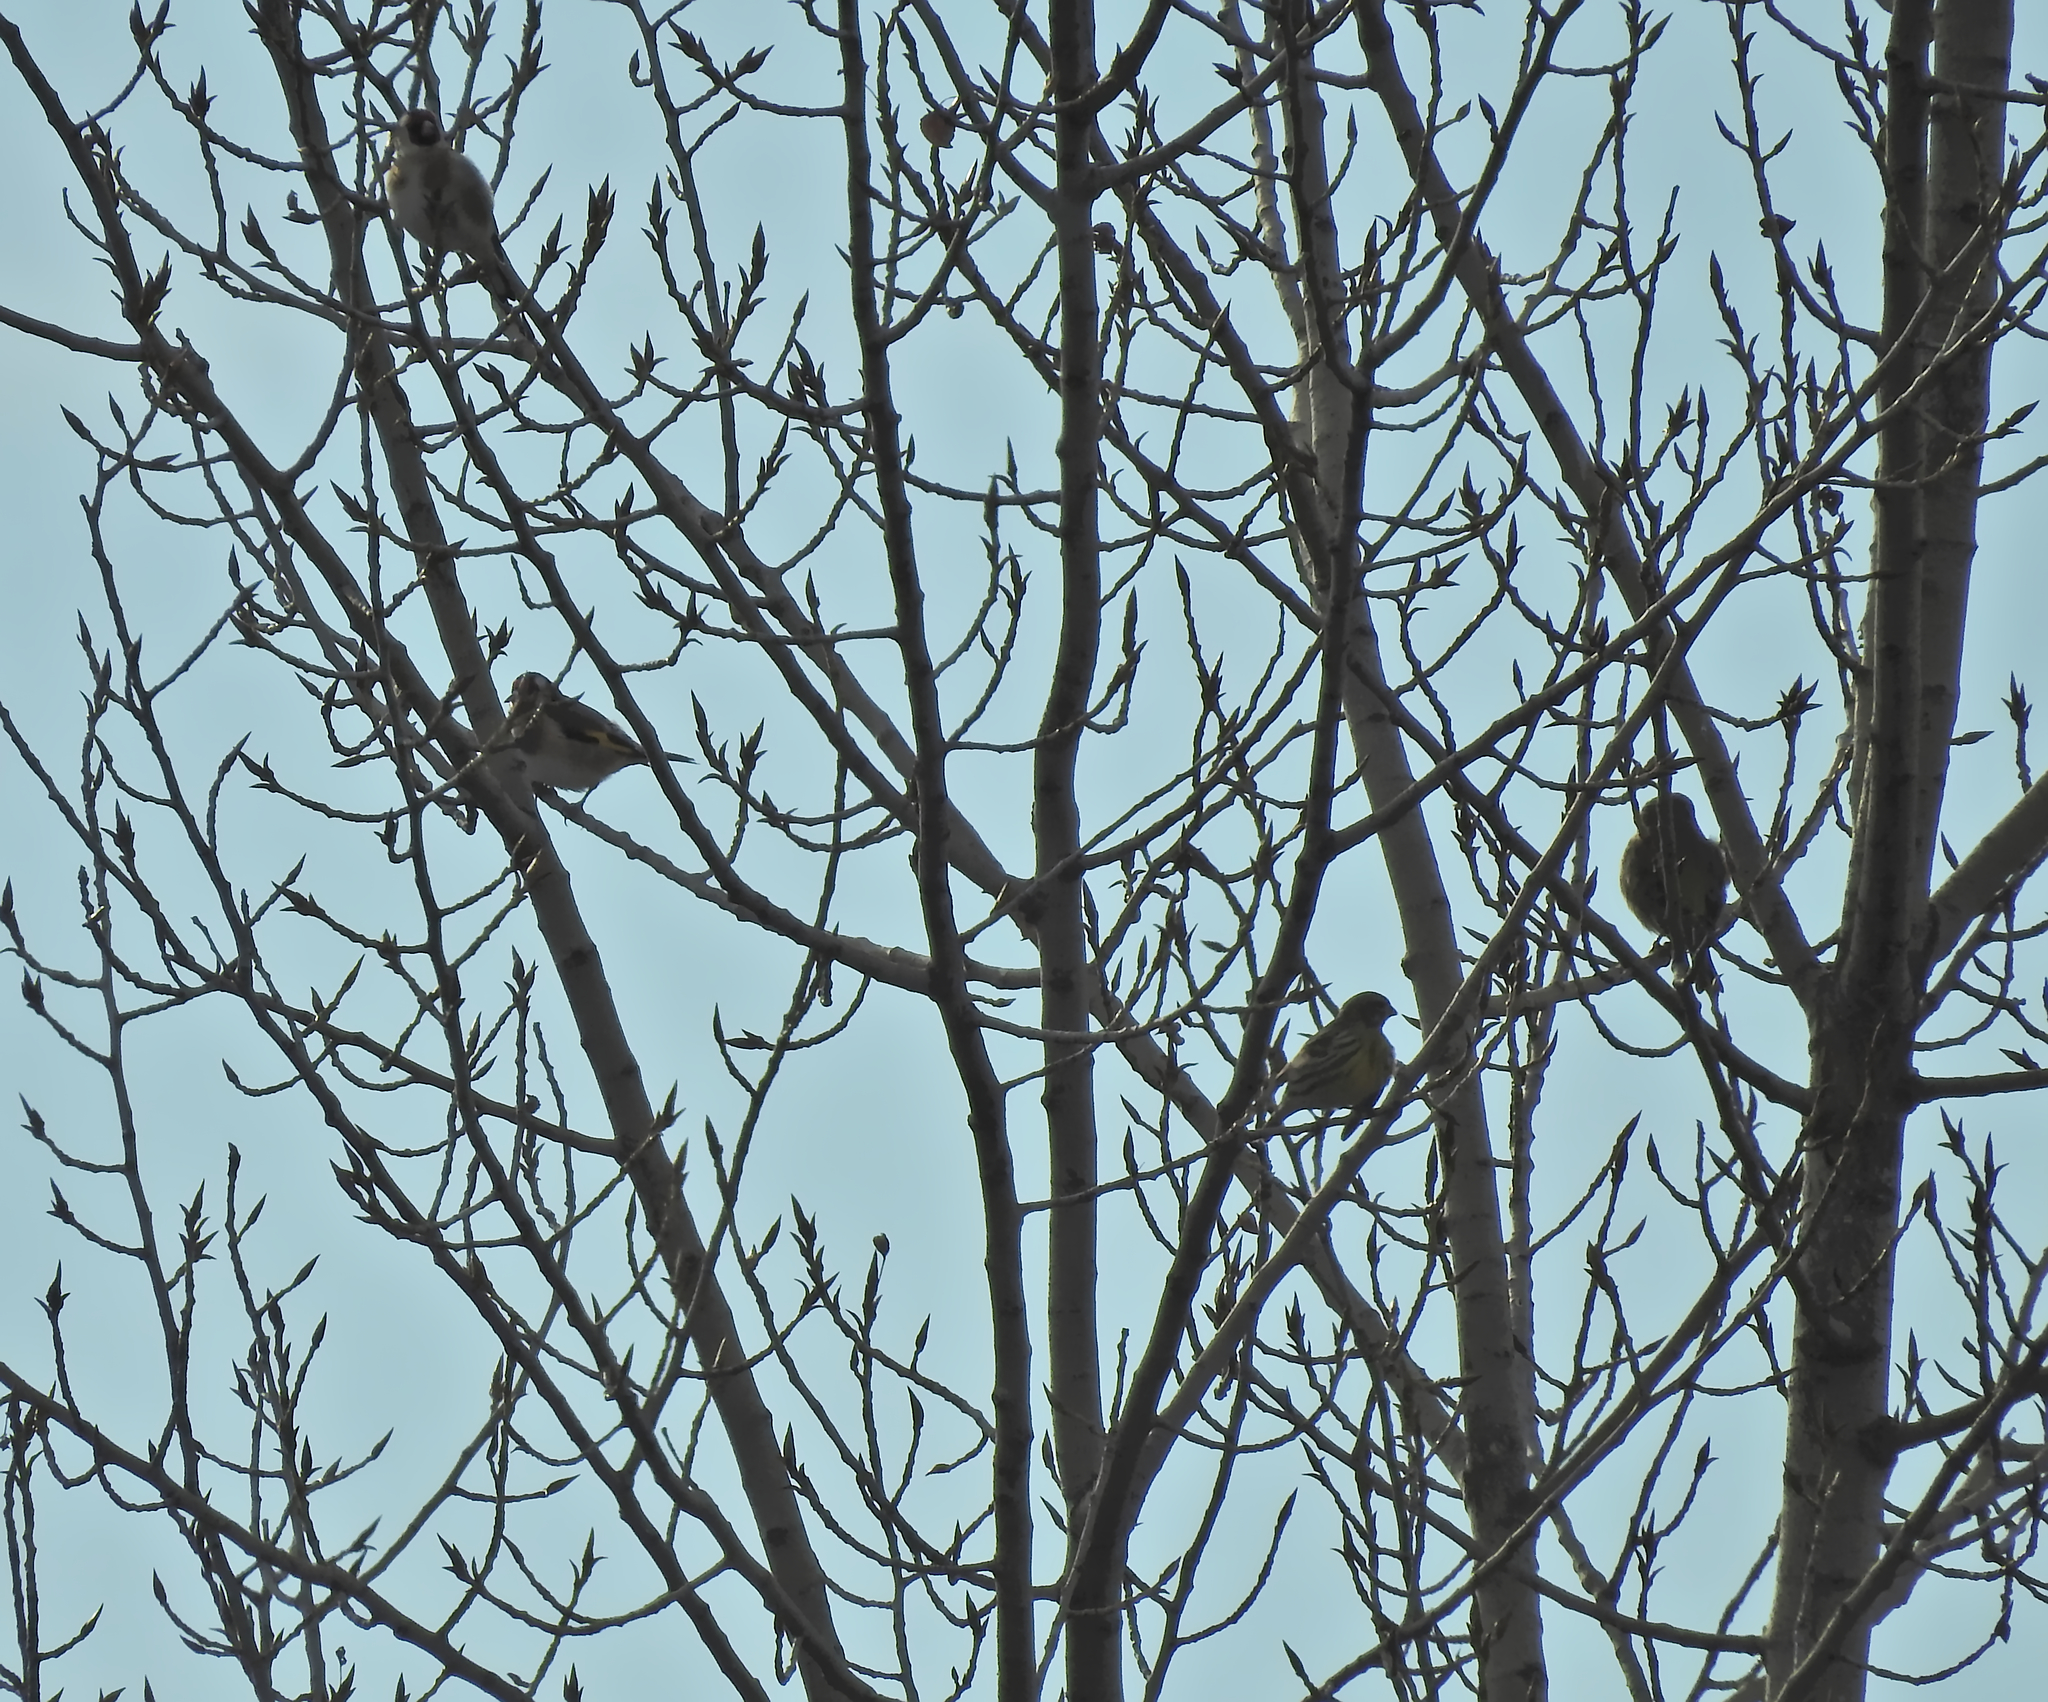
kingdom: Animalia
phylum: Chordata
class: Aves
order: Passeriformes
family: Fringillidae
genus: Serinus
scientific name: Serinus serinus
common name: European serin
